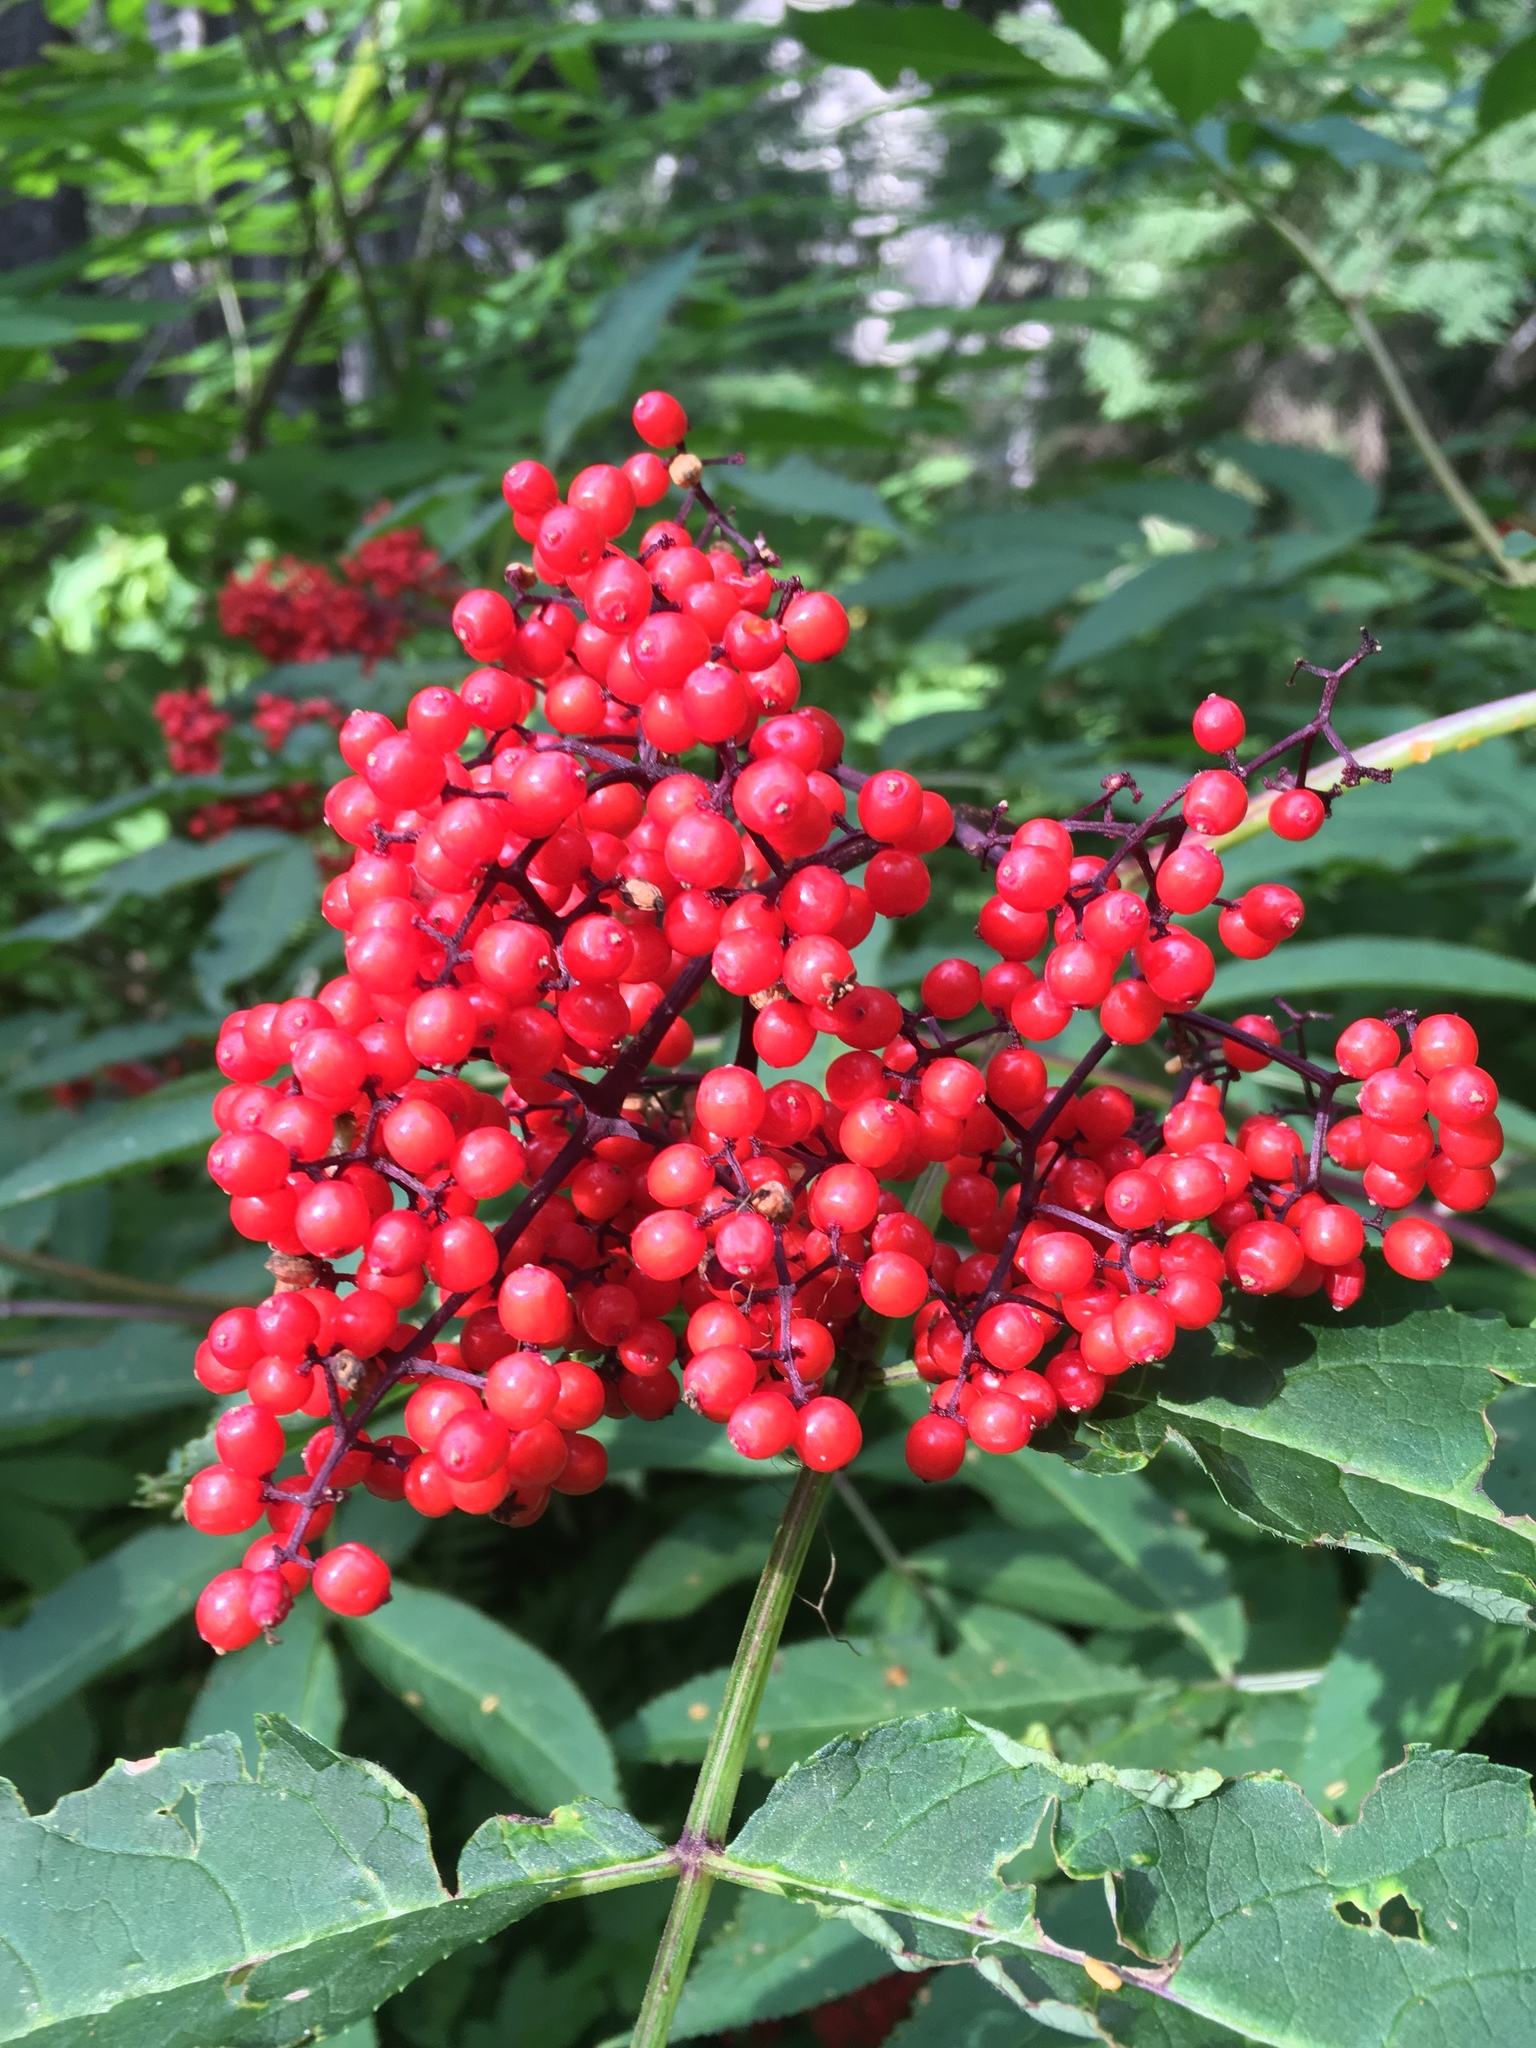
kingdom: Plantae
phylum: Tracheophyta
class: Magnoliopsida
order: Dipsacales
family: Viburnaceae
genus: Sambucus
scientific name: Sambucus racemosa
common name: Red-berried elder
